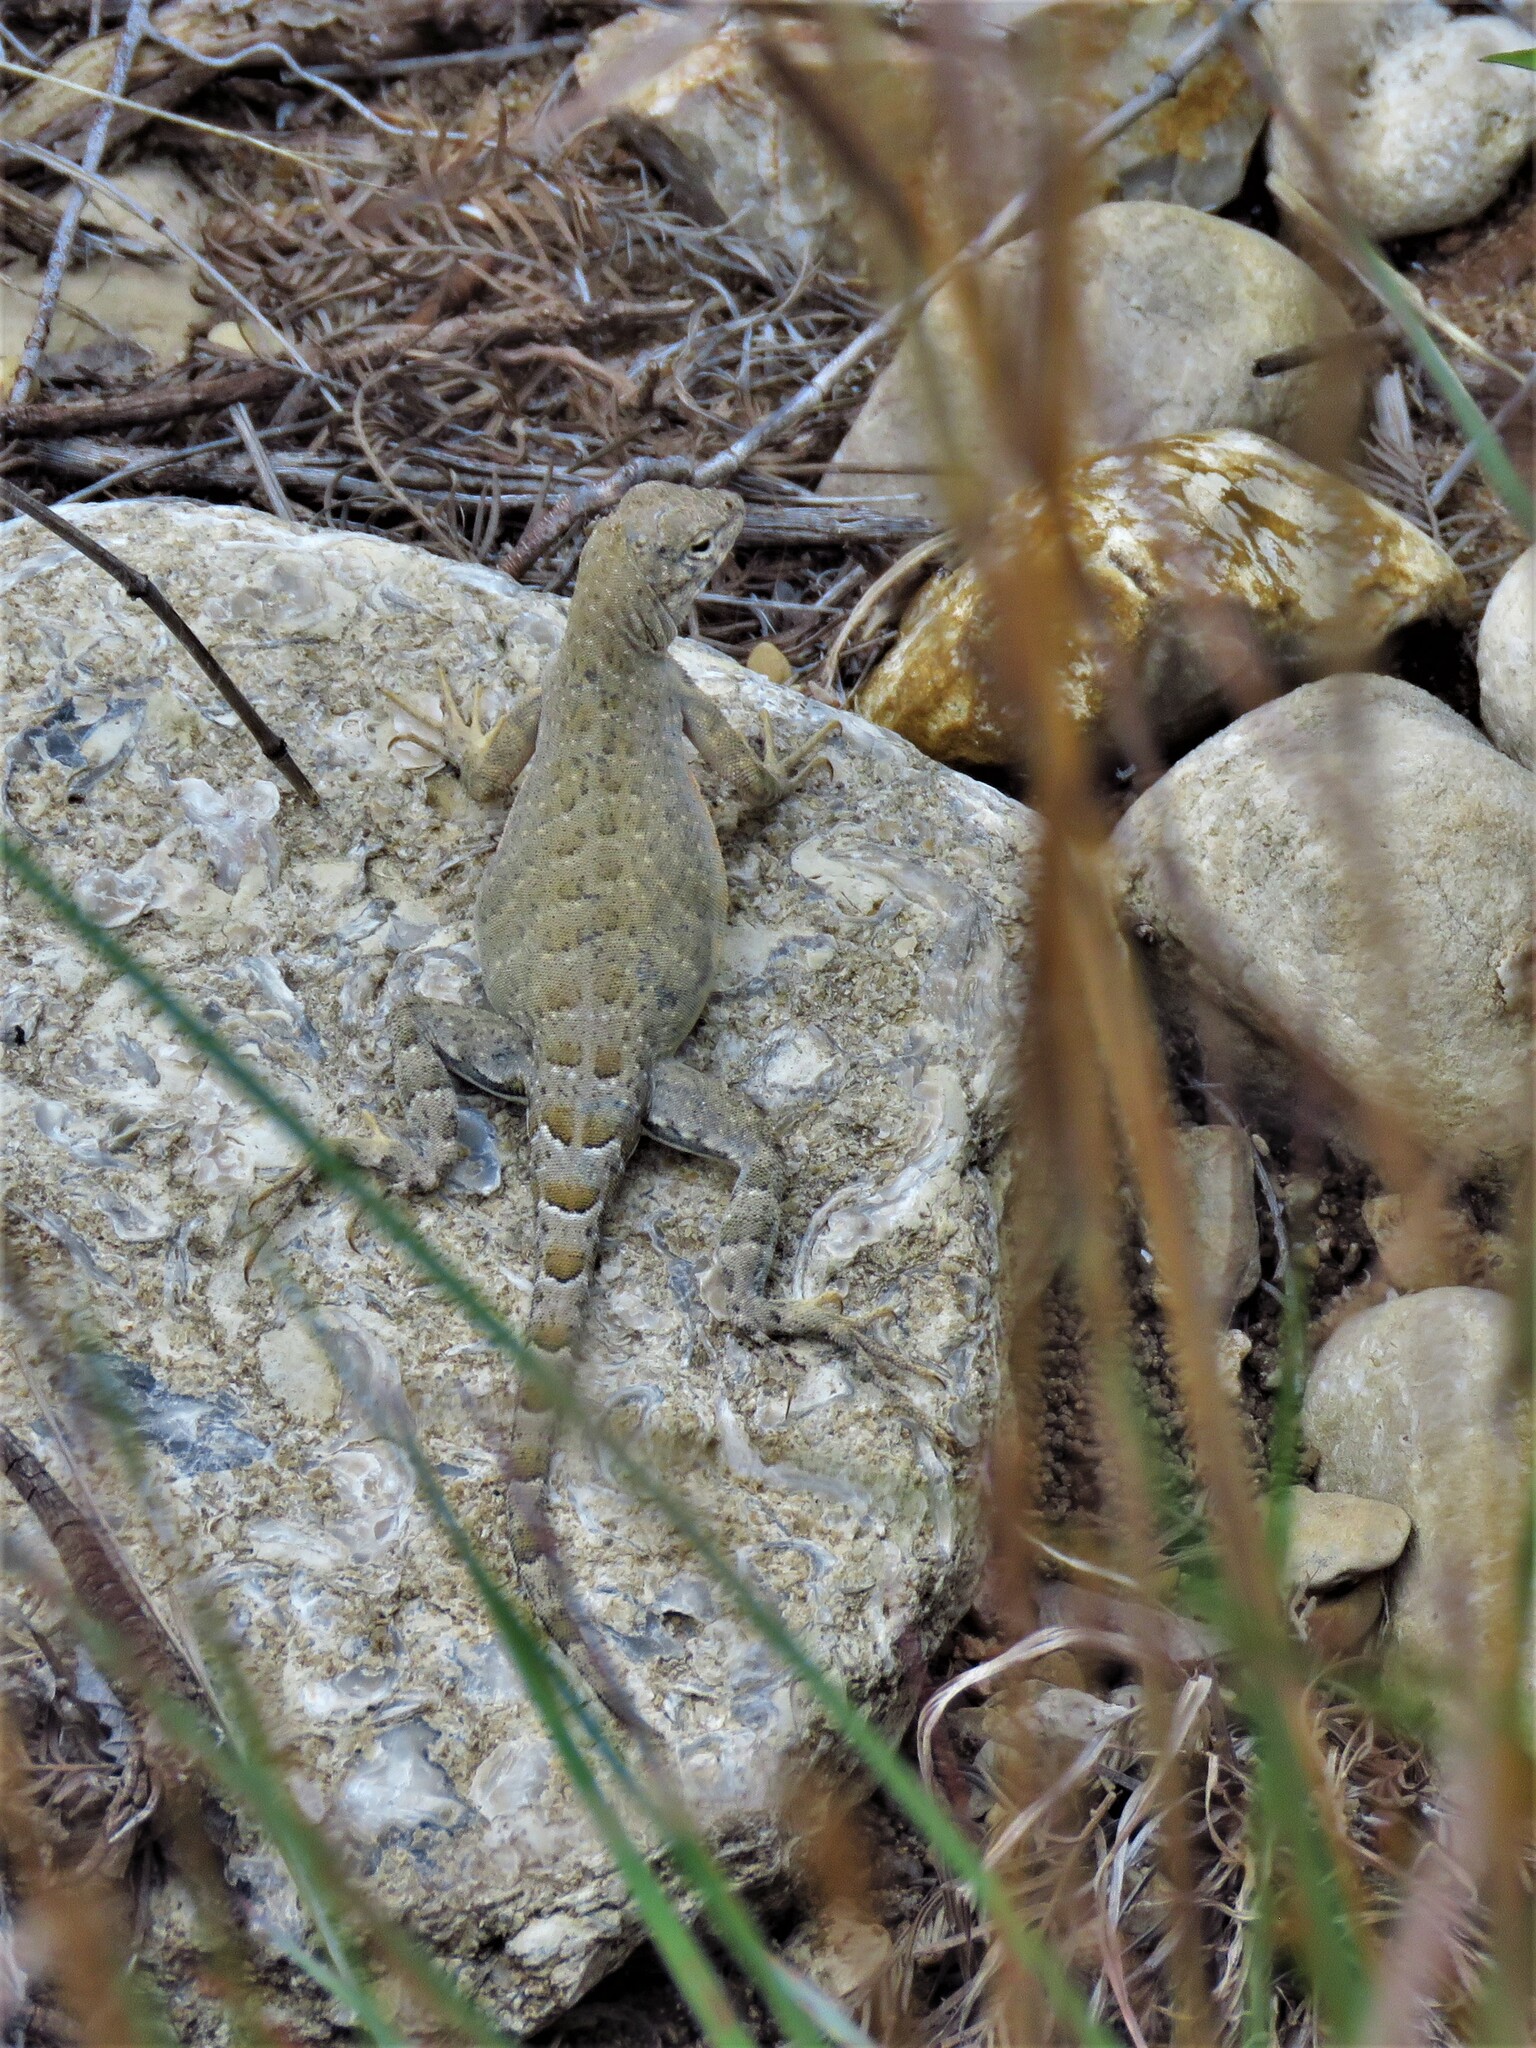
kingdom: Animalia
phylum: Chordata
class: Squamata
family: Phrynosomatidae
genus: Cophosaurus
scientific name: Cophosaurus texanus
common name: Greater earless lizard
